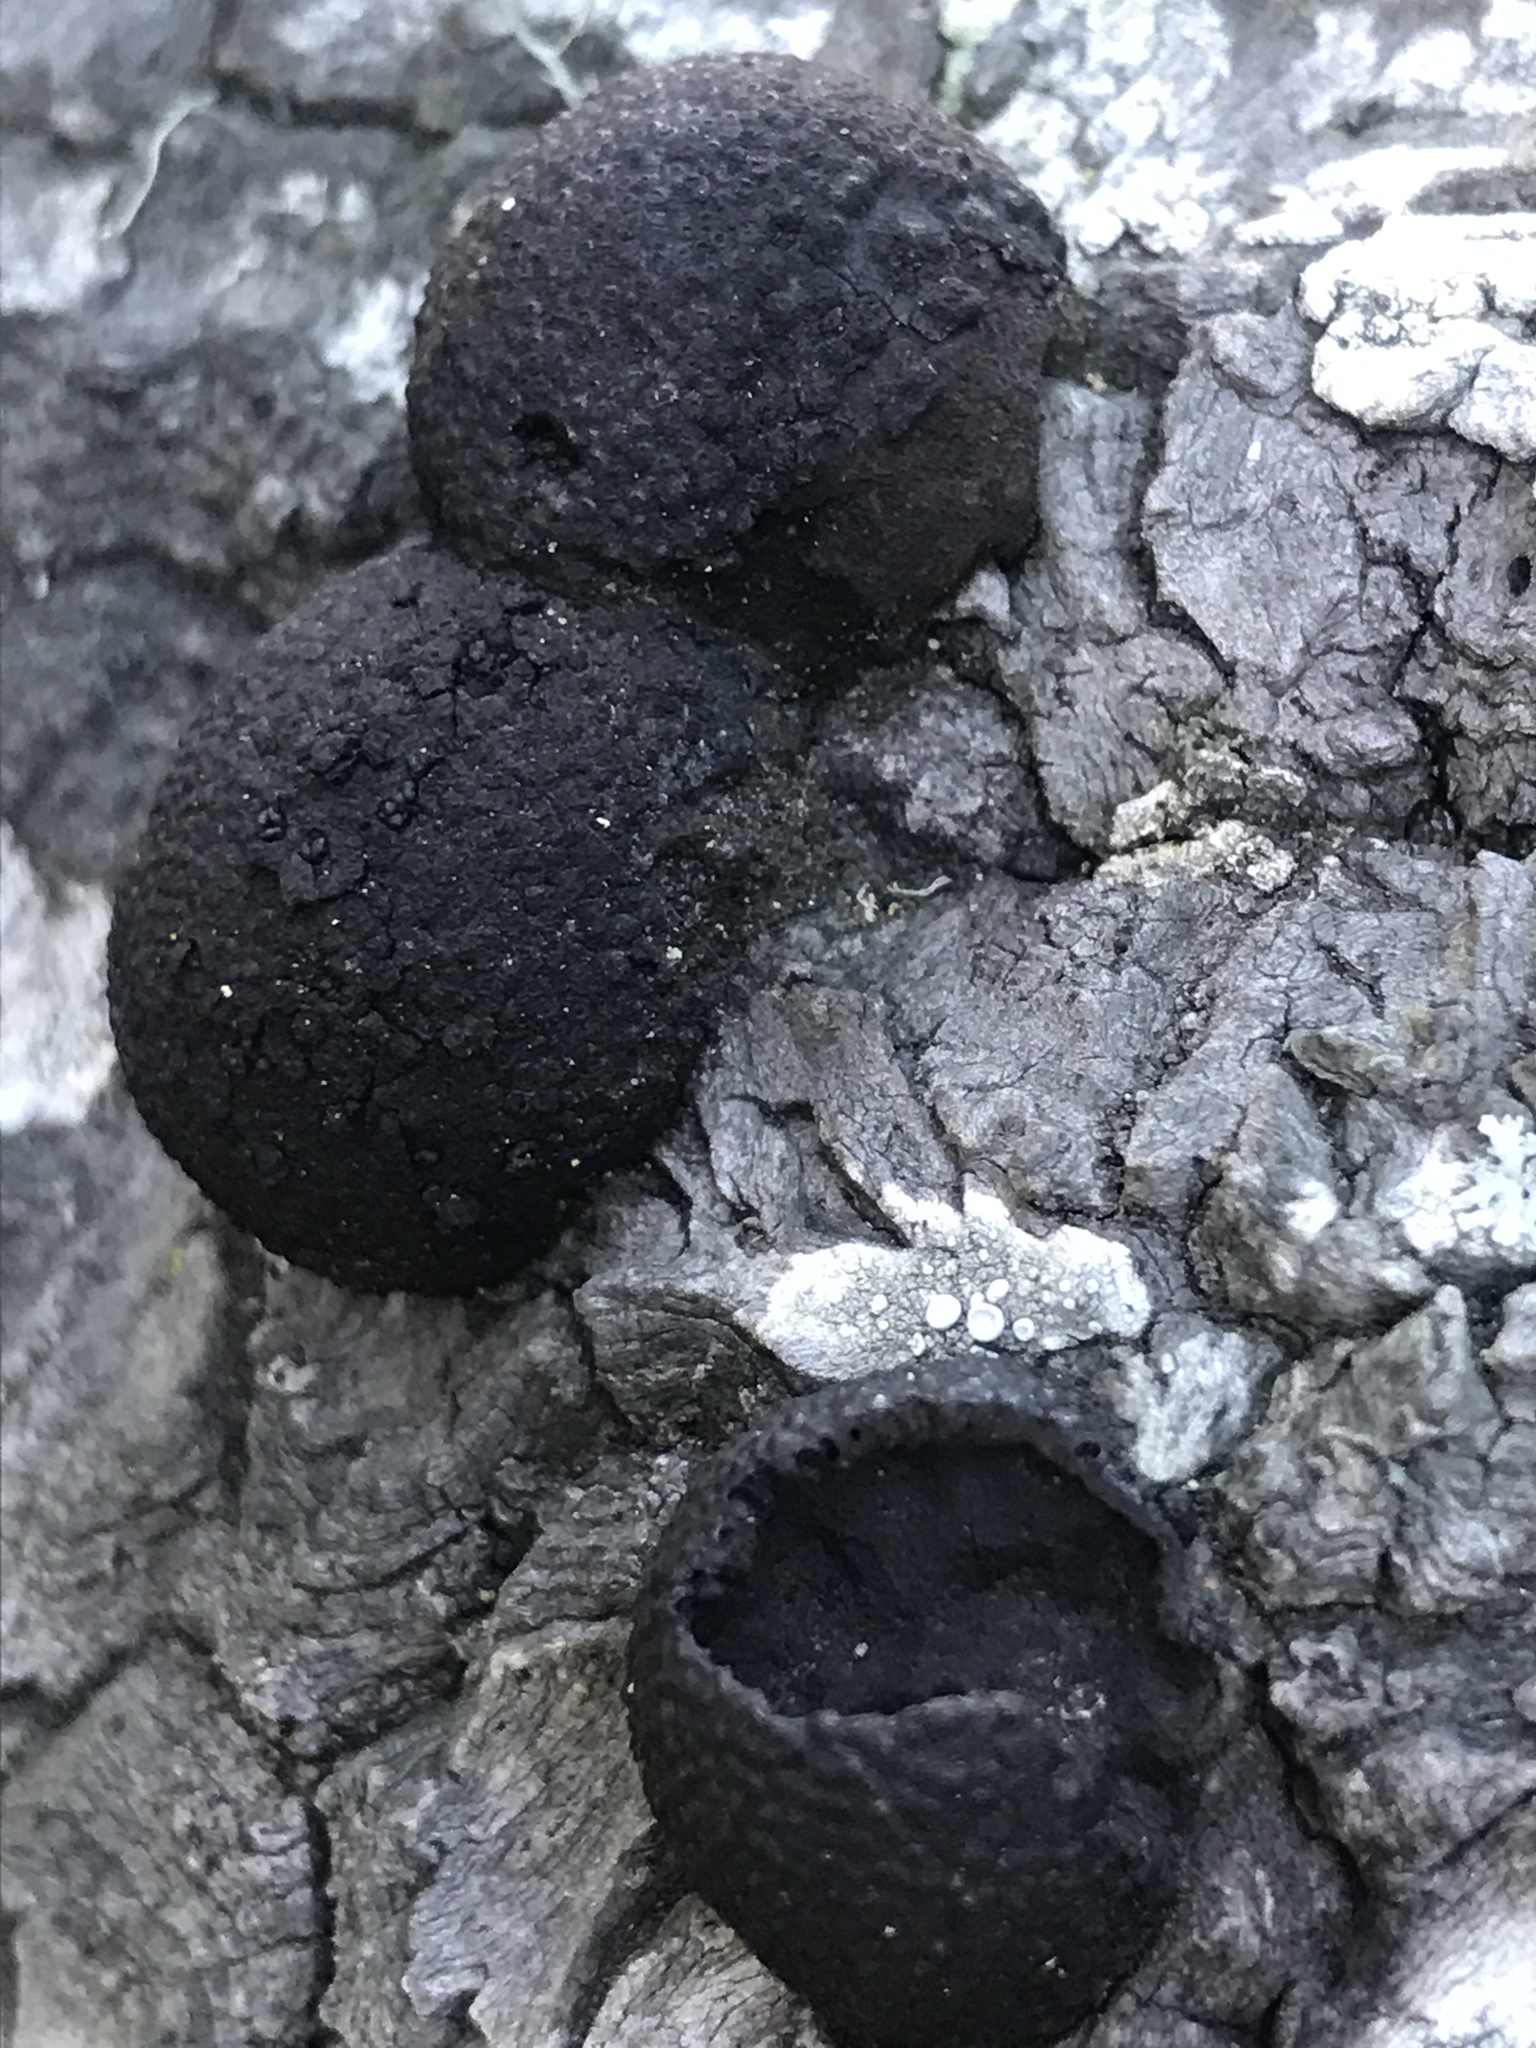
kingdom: Fungi
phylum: Ascomycota
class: Sordariomycetes
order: Xylariales
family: Hypoxylaceae
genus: Annulohypoxylon
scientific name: Annulohypoxylon thouarsianum
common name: Cramp balls
